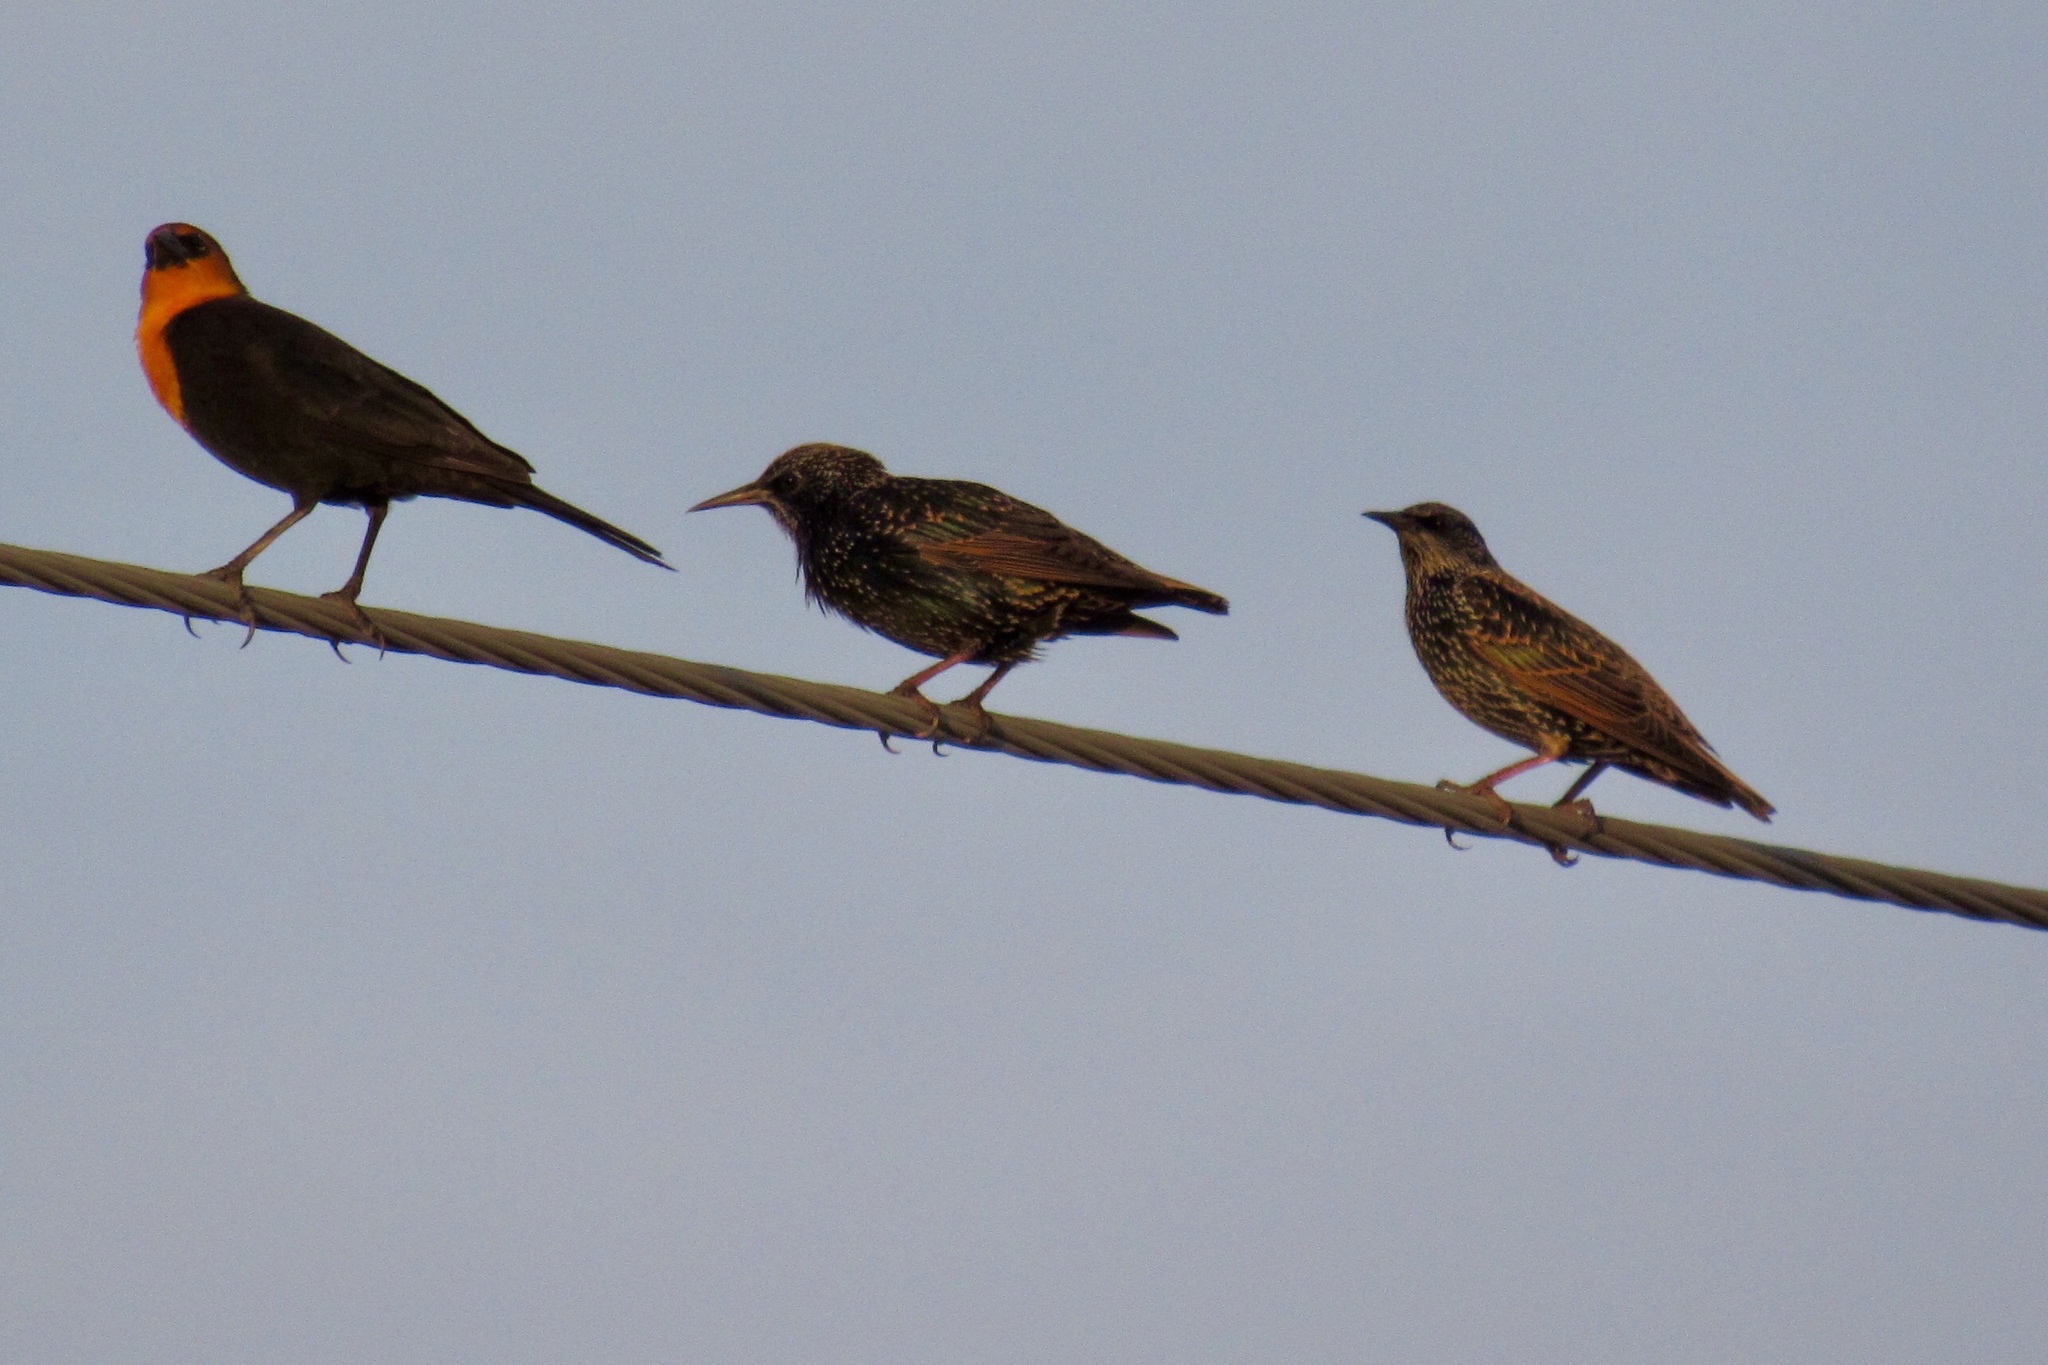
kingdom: Animalia
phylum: Chordata
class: Aves
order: Passeriformes
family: Icteridae
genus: Xanthocephalus
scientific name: Xanthocephalus xanthocephalus
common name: Yellow-headed blackbird
